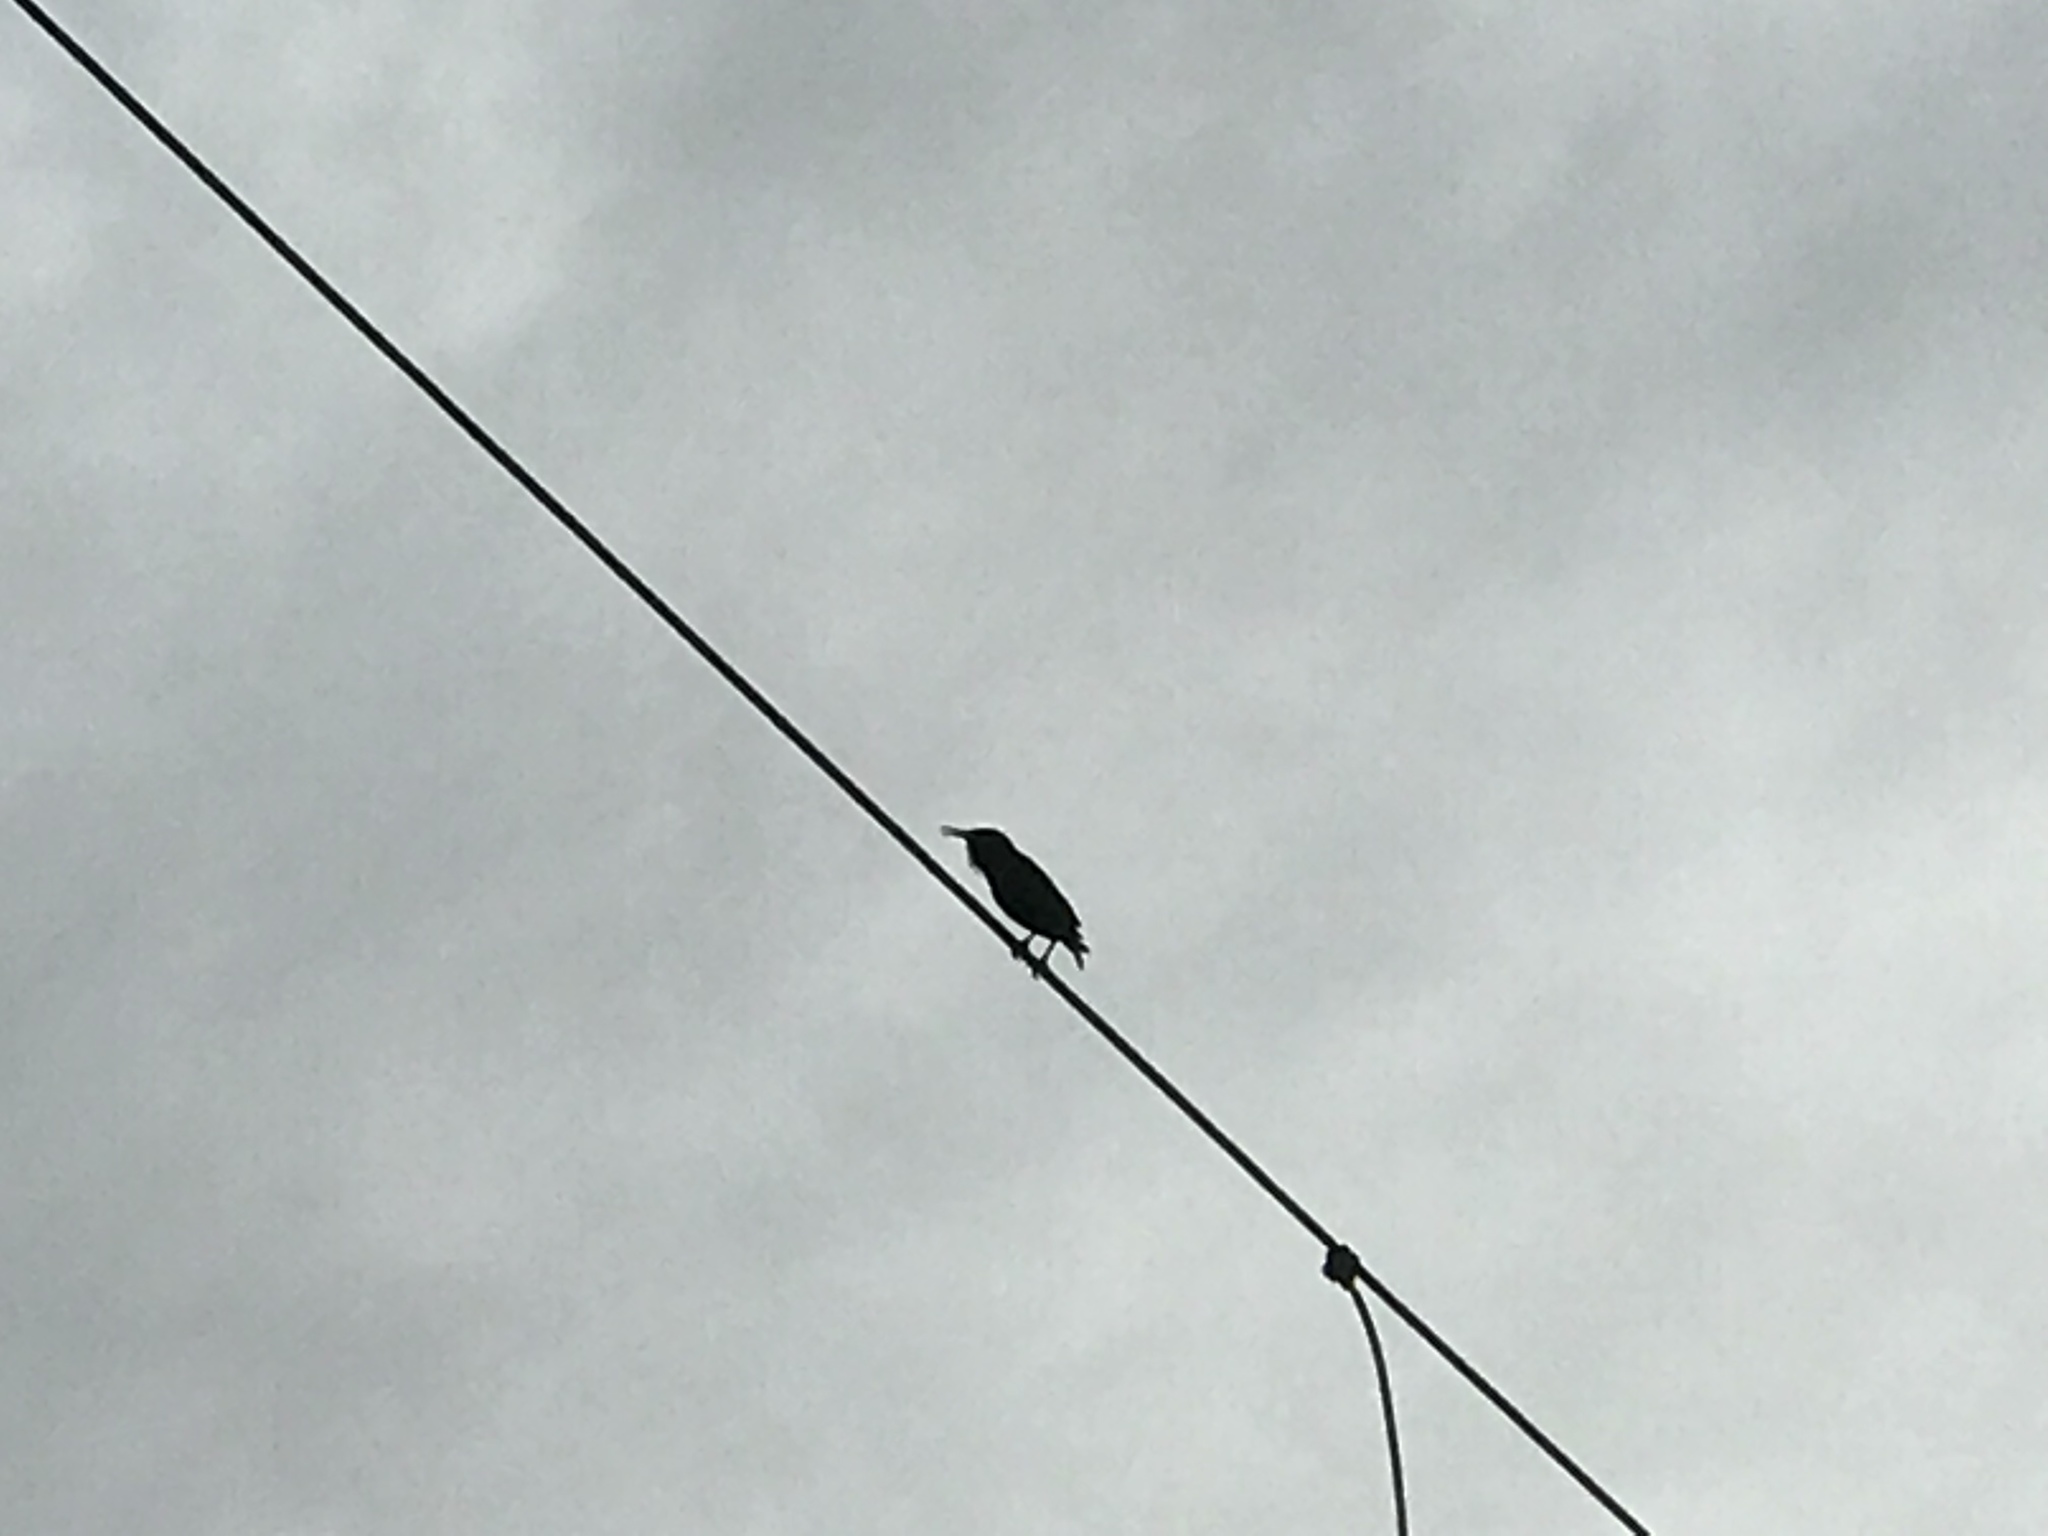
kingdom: Animalia
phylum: Chordata
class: Aves
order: Passeriformes
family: Sturnidae
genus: Sturnus
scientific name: Sturnus vulgaris
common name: Common starling
